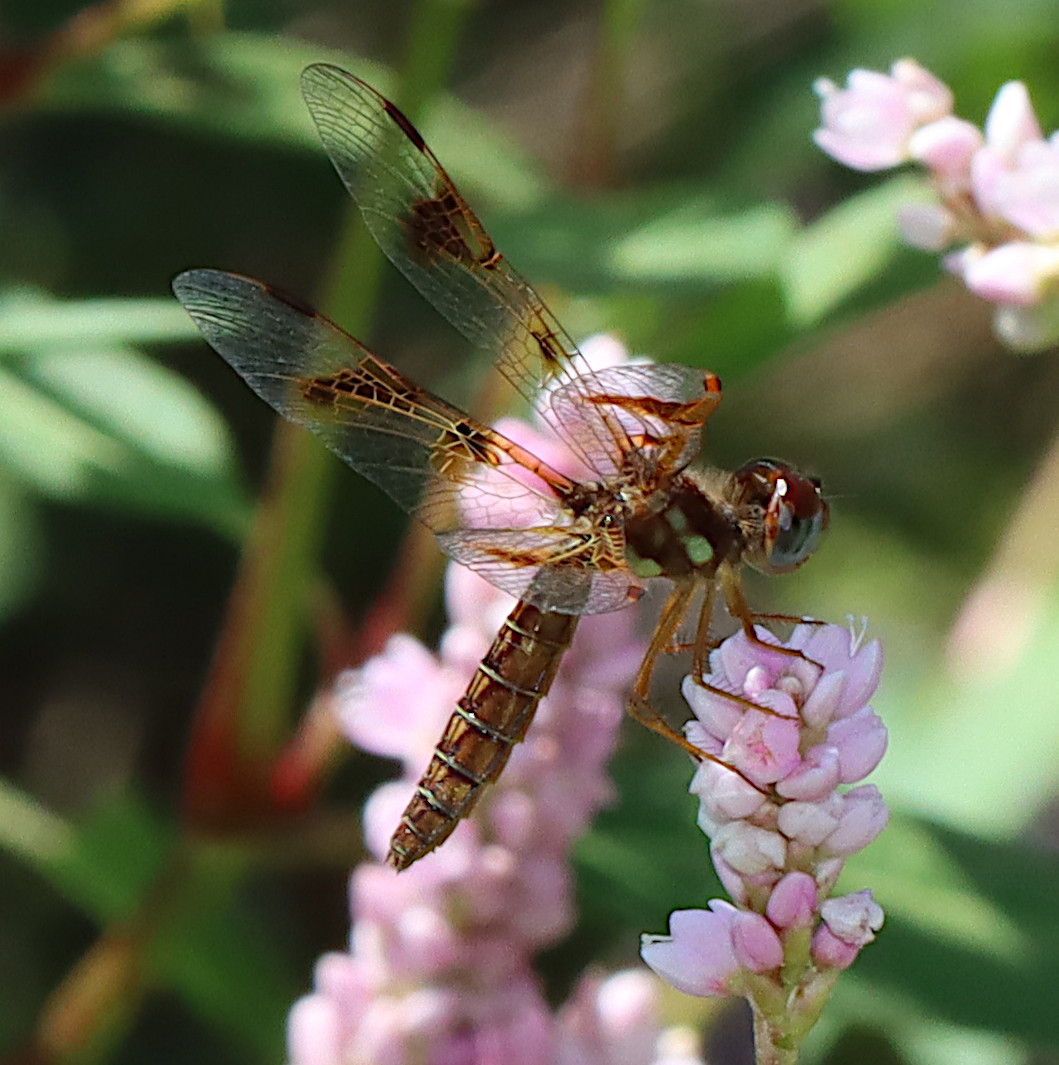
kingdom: Animalia
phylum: Arthropoda
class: Insecta
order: Odonata
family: Libellulidae
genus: Perithemis
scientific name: Perithemis tenera
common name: Eastern amberwing
